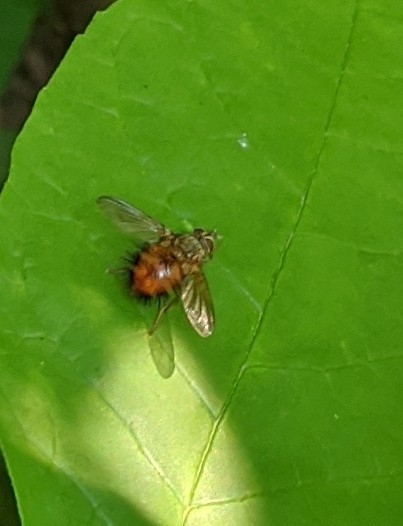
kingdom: Animalia
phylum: Arthropoda
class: Insecta
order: Diptera
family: Tachinidae
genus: Hystricia
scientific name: Hystricia abrupta
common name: Tomato bristle fly
